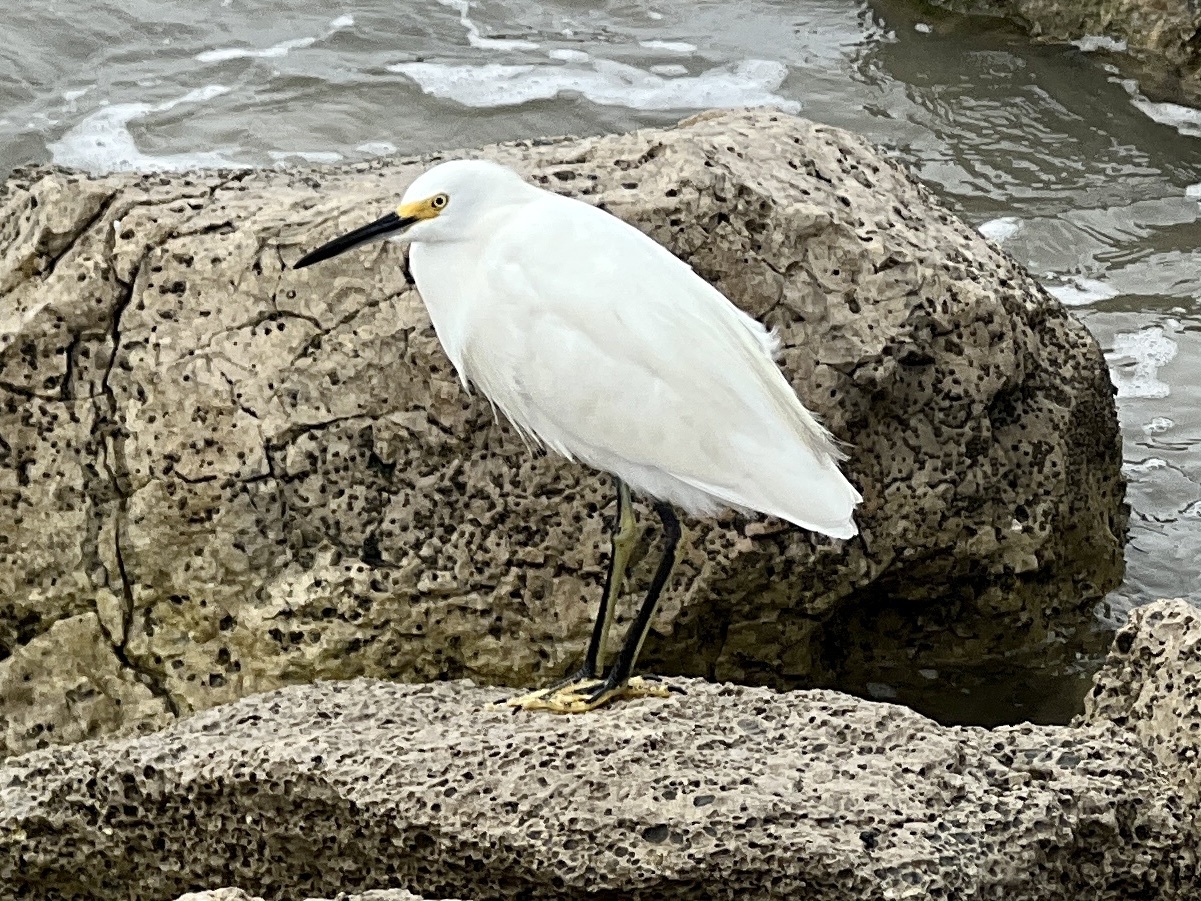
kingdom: Animalia
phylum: Chordata
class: Aves
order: Pelecaniformes
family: Ardeidae
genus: Egretta
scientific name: Egretta thula
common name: Snowy egret
